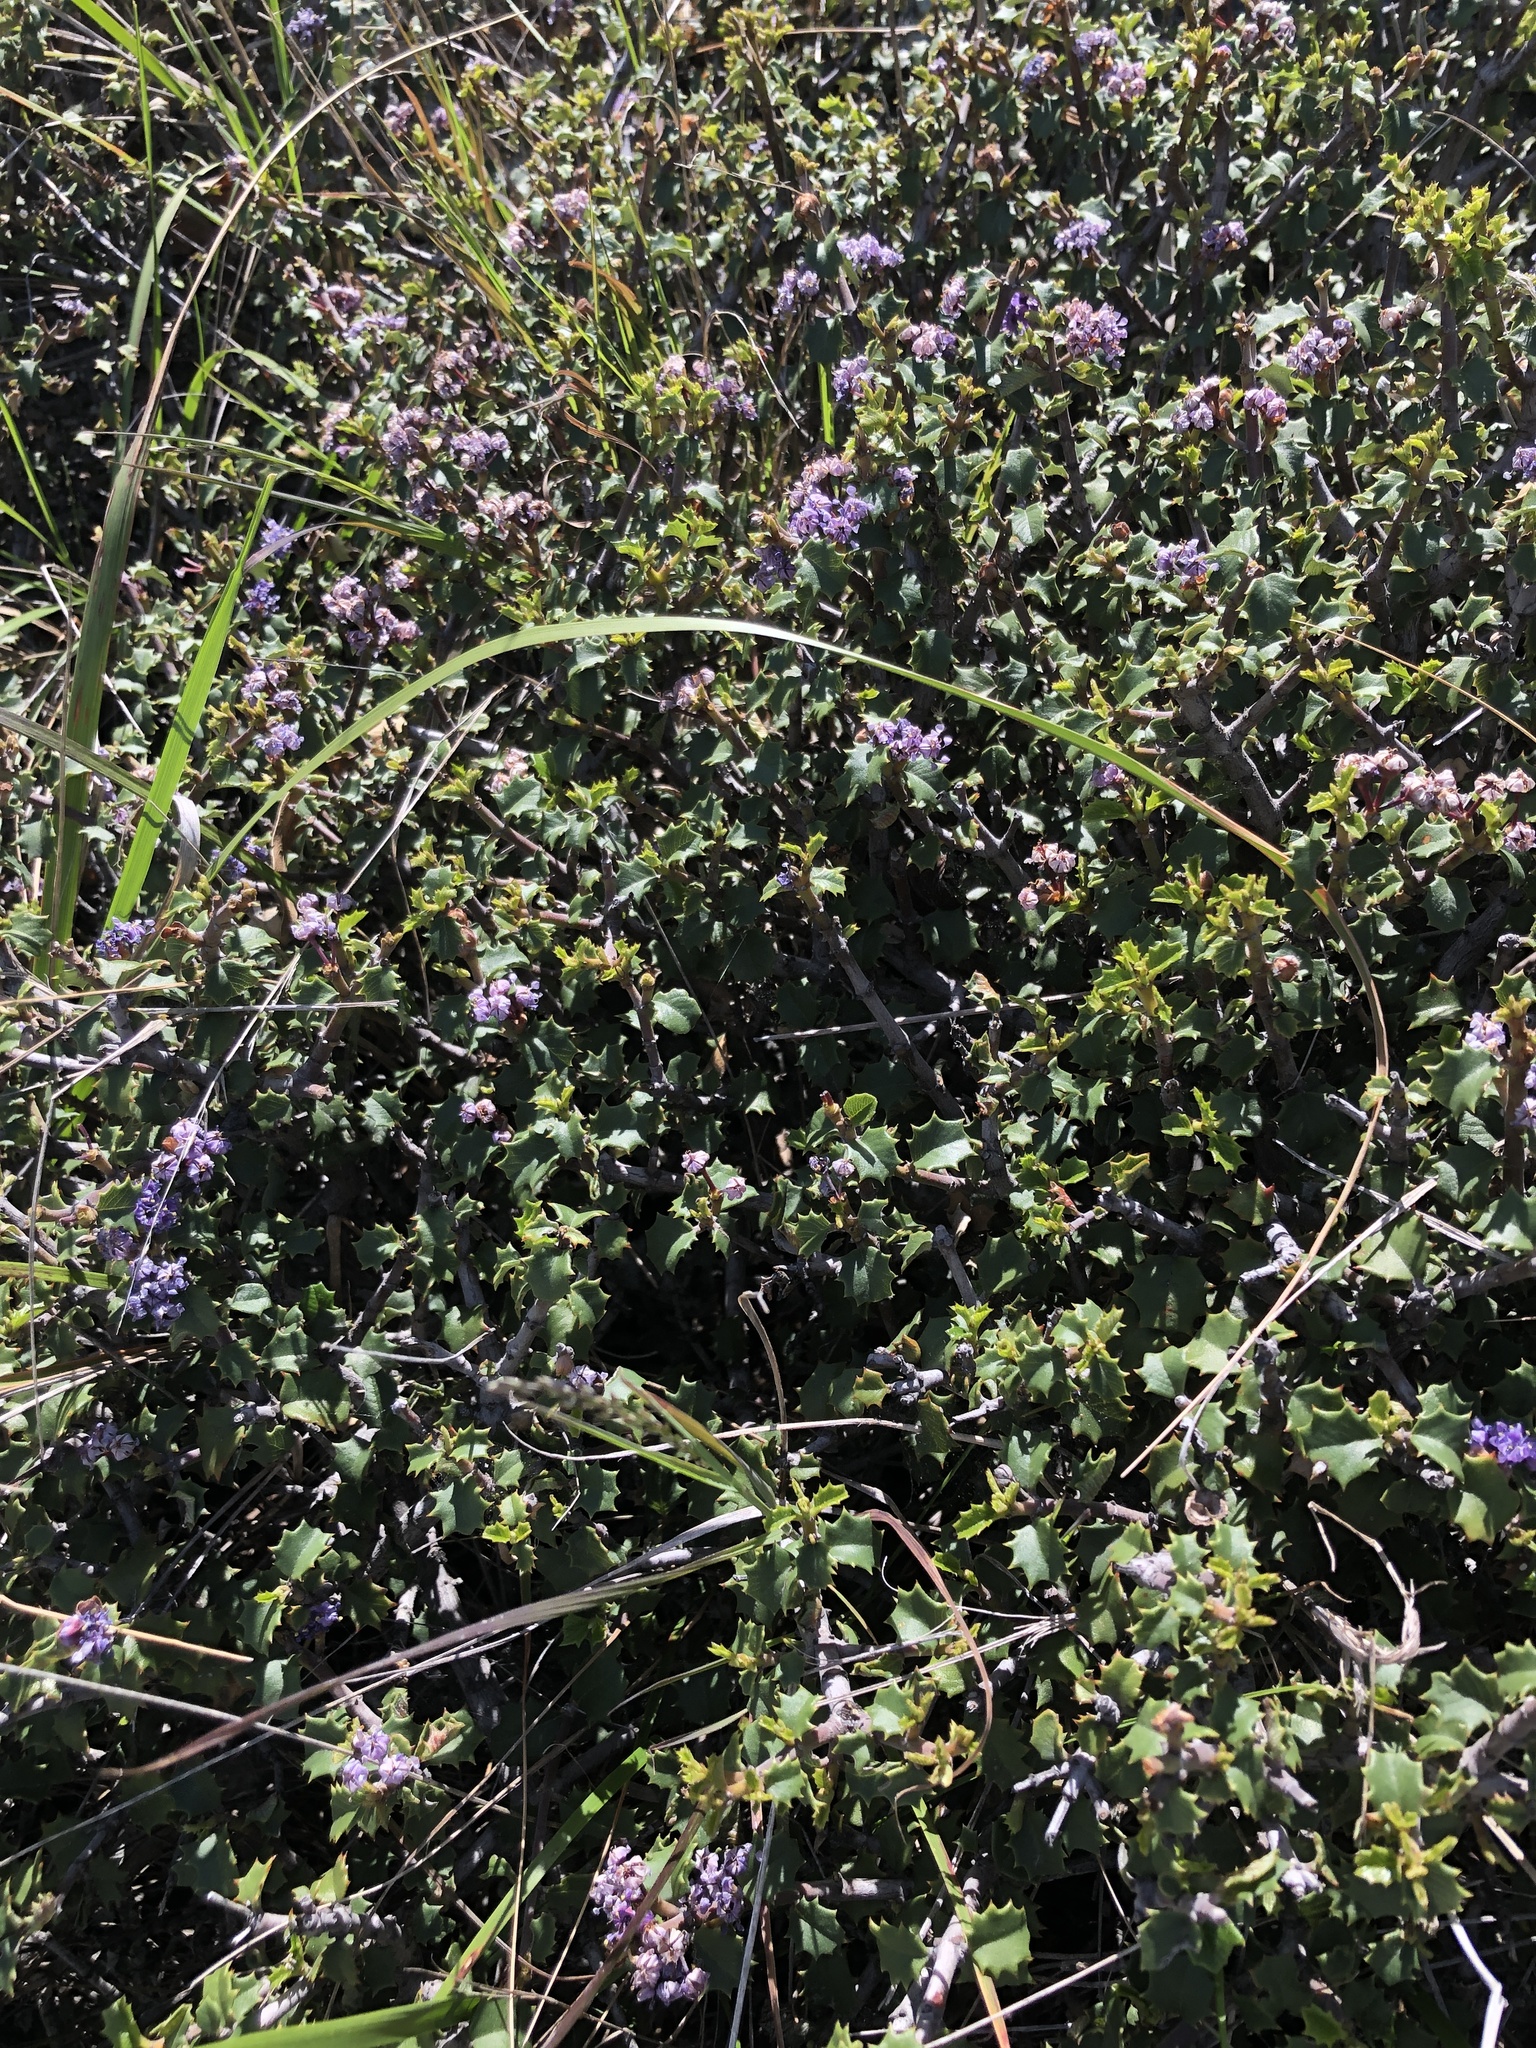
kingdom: Plantae
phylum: Tracheophyta
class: Magnoliopsida
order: Rosales
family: Rhamnaceae
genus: Ceanothus
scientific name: Ceanothus jepsonii
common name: Muskbrush
